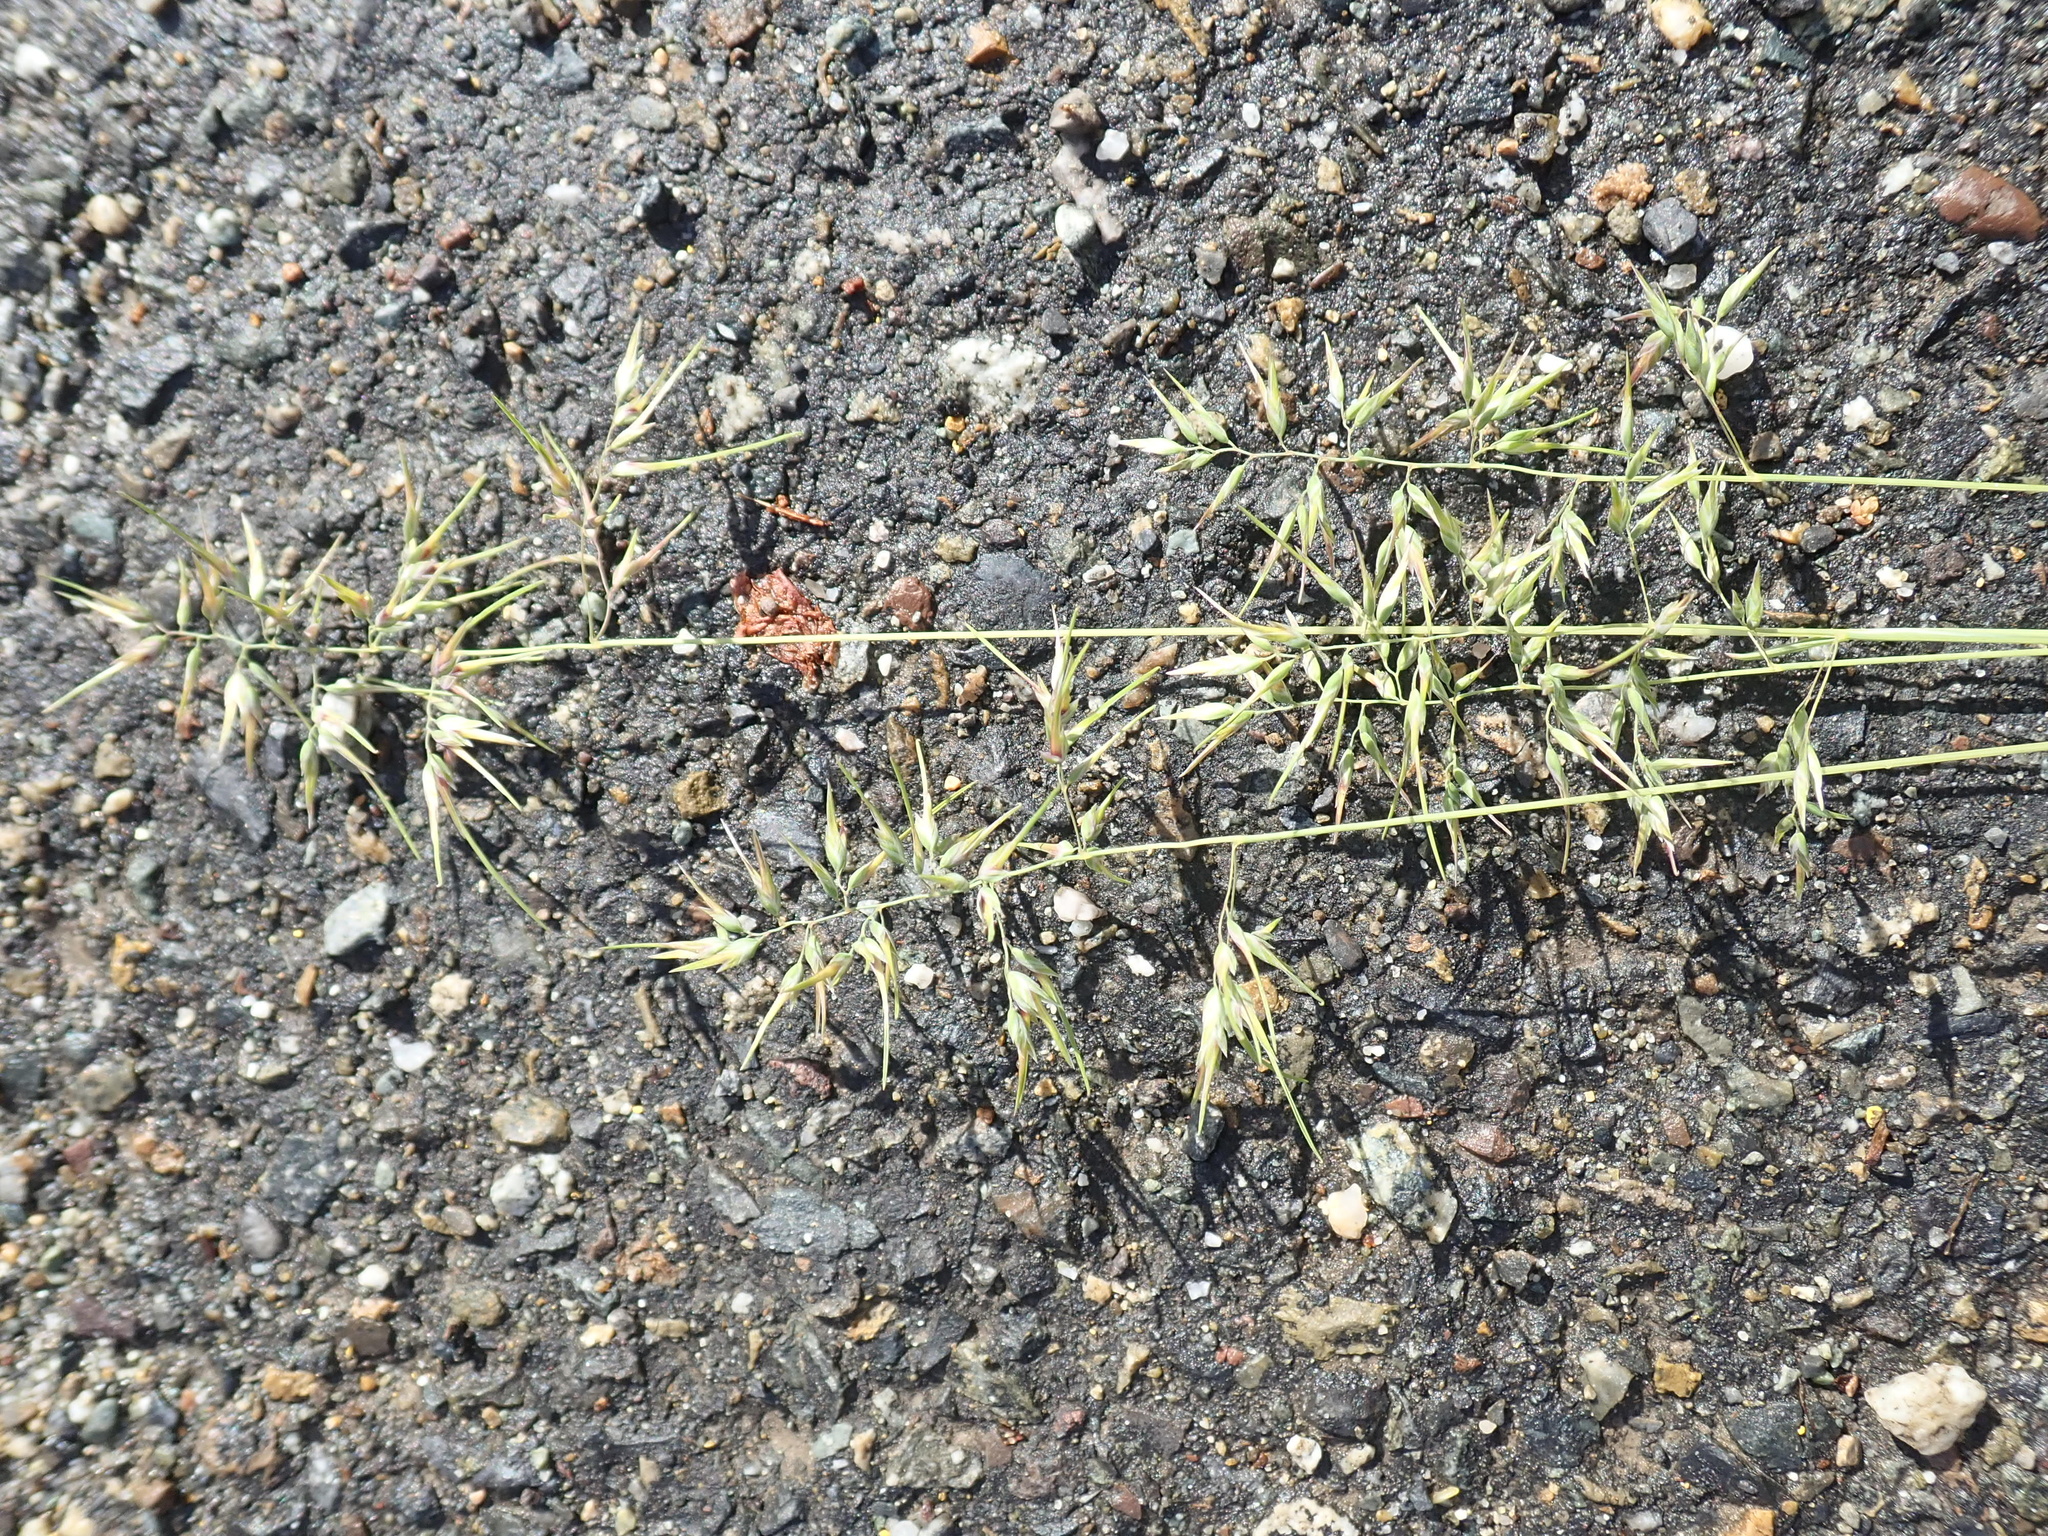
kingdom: Plantae
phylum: Tracheophyta
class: Liliopsida
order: Poales
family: Poaceae
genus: Poa
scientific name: Poa bulbosa
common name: Bulbous bluegrass
